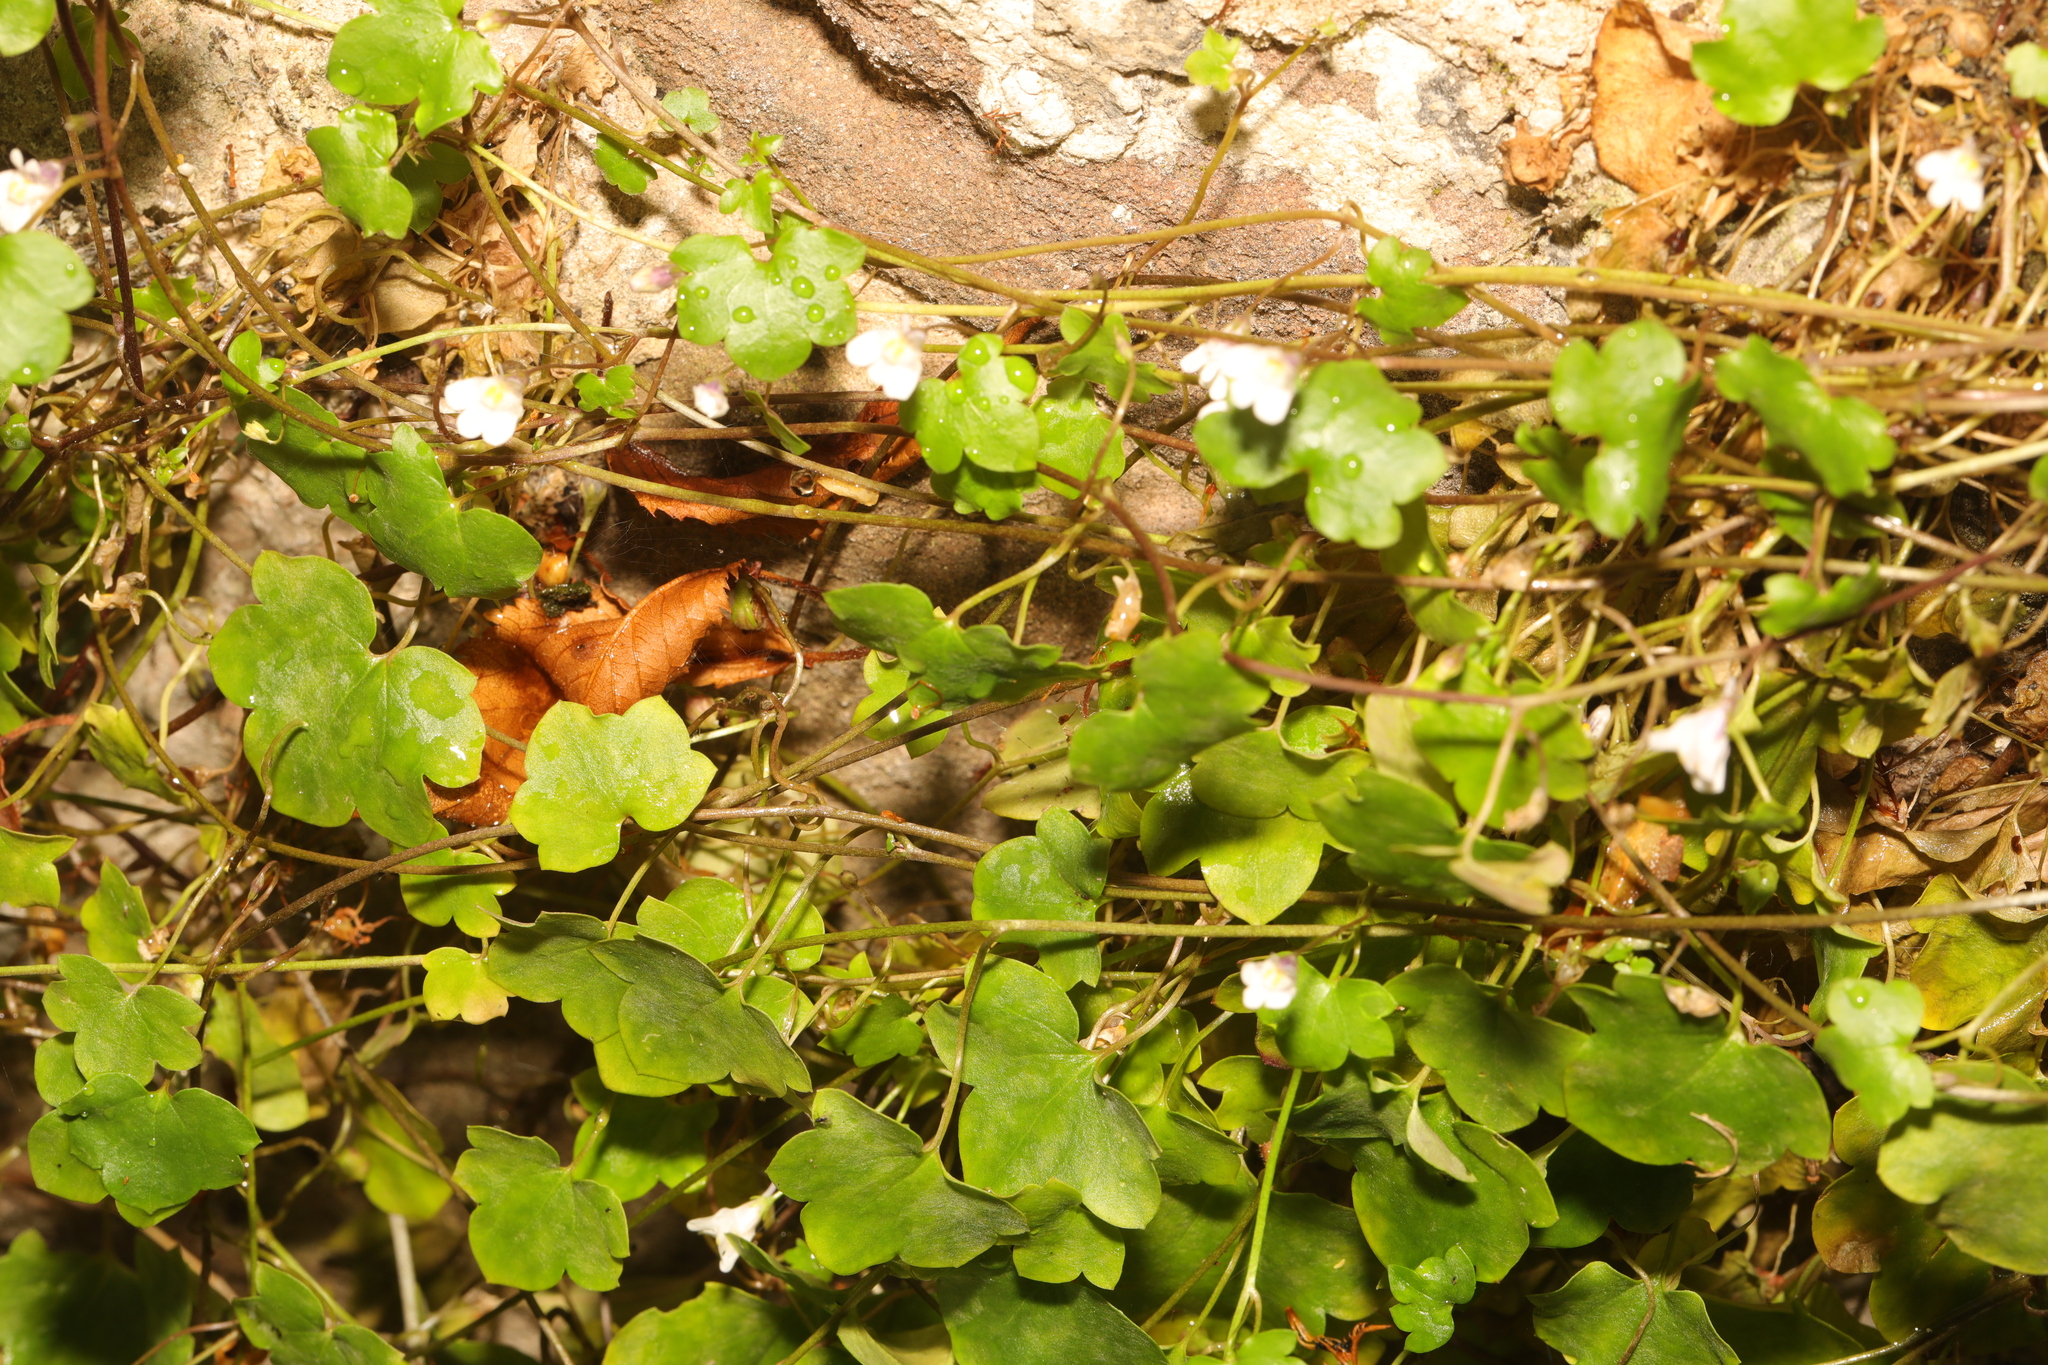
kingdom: Plantae
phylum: Tracheophyta
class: Magnoliopsida
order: Lamiales
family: Plantaginaceae
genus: Cymbalaria
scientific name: Cymbalaria muralis
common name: Ivy-leaved toadflax
